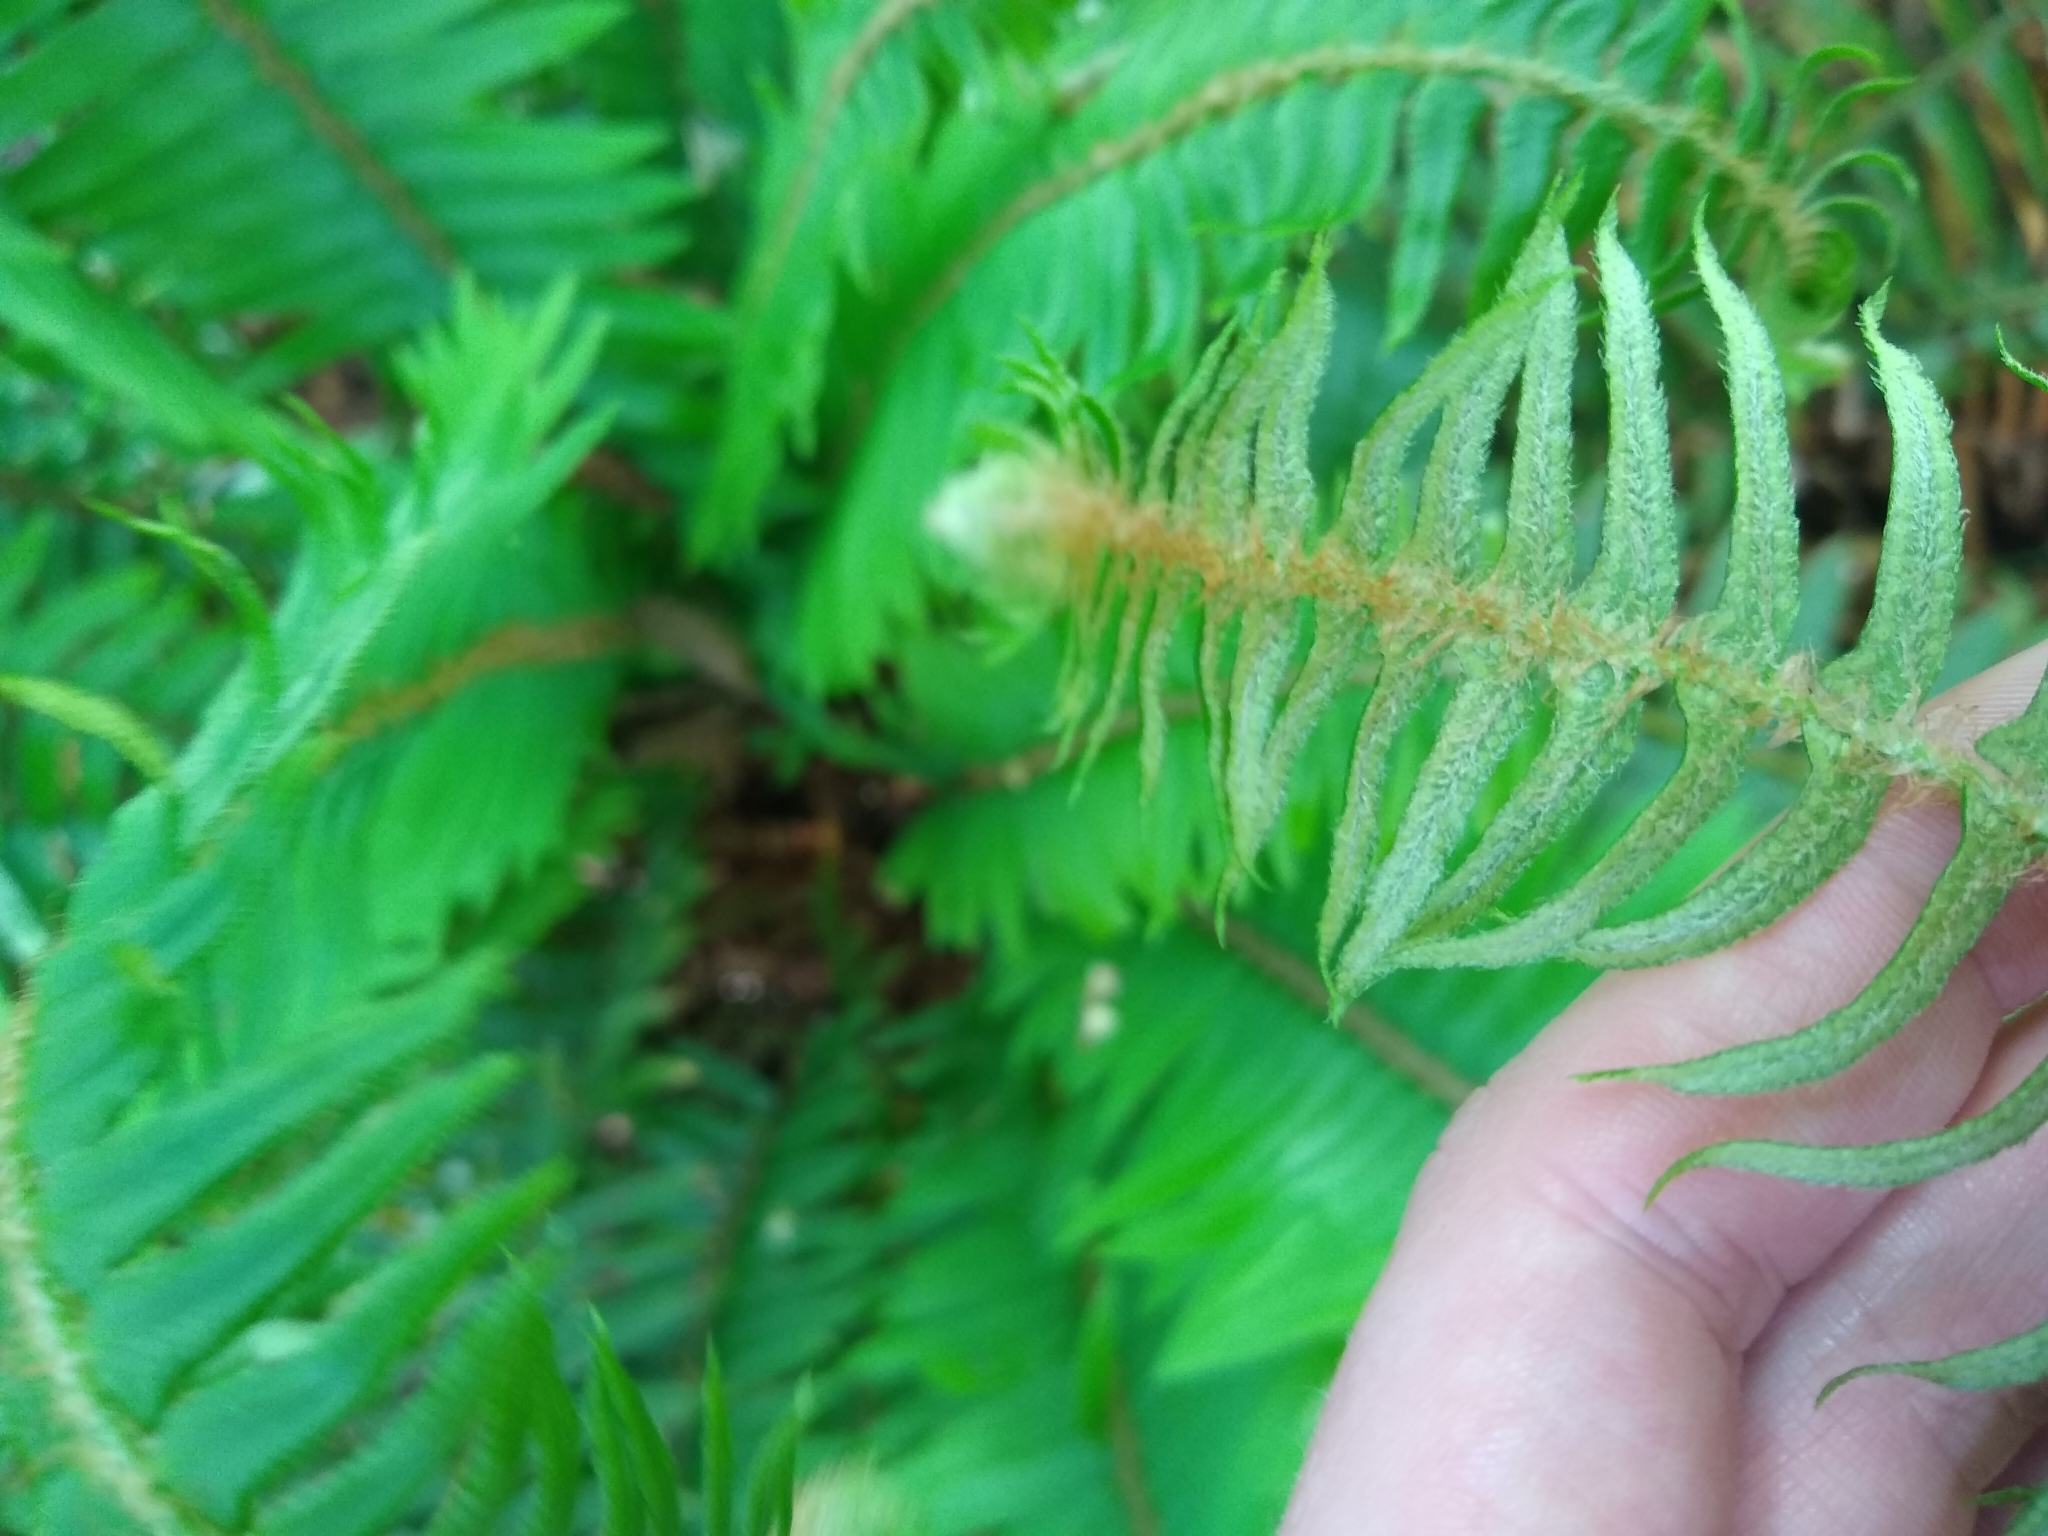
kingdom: Plantae
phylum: Tracheophyta
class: Polypodiopsida
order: Polypodiales
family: Dryopteridaceae
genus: Polystichum
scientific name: Polystichum munitum
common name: Western sword-fern
